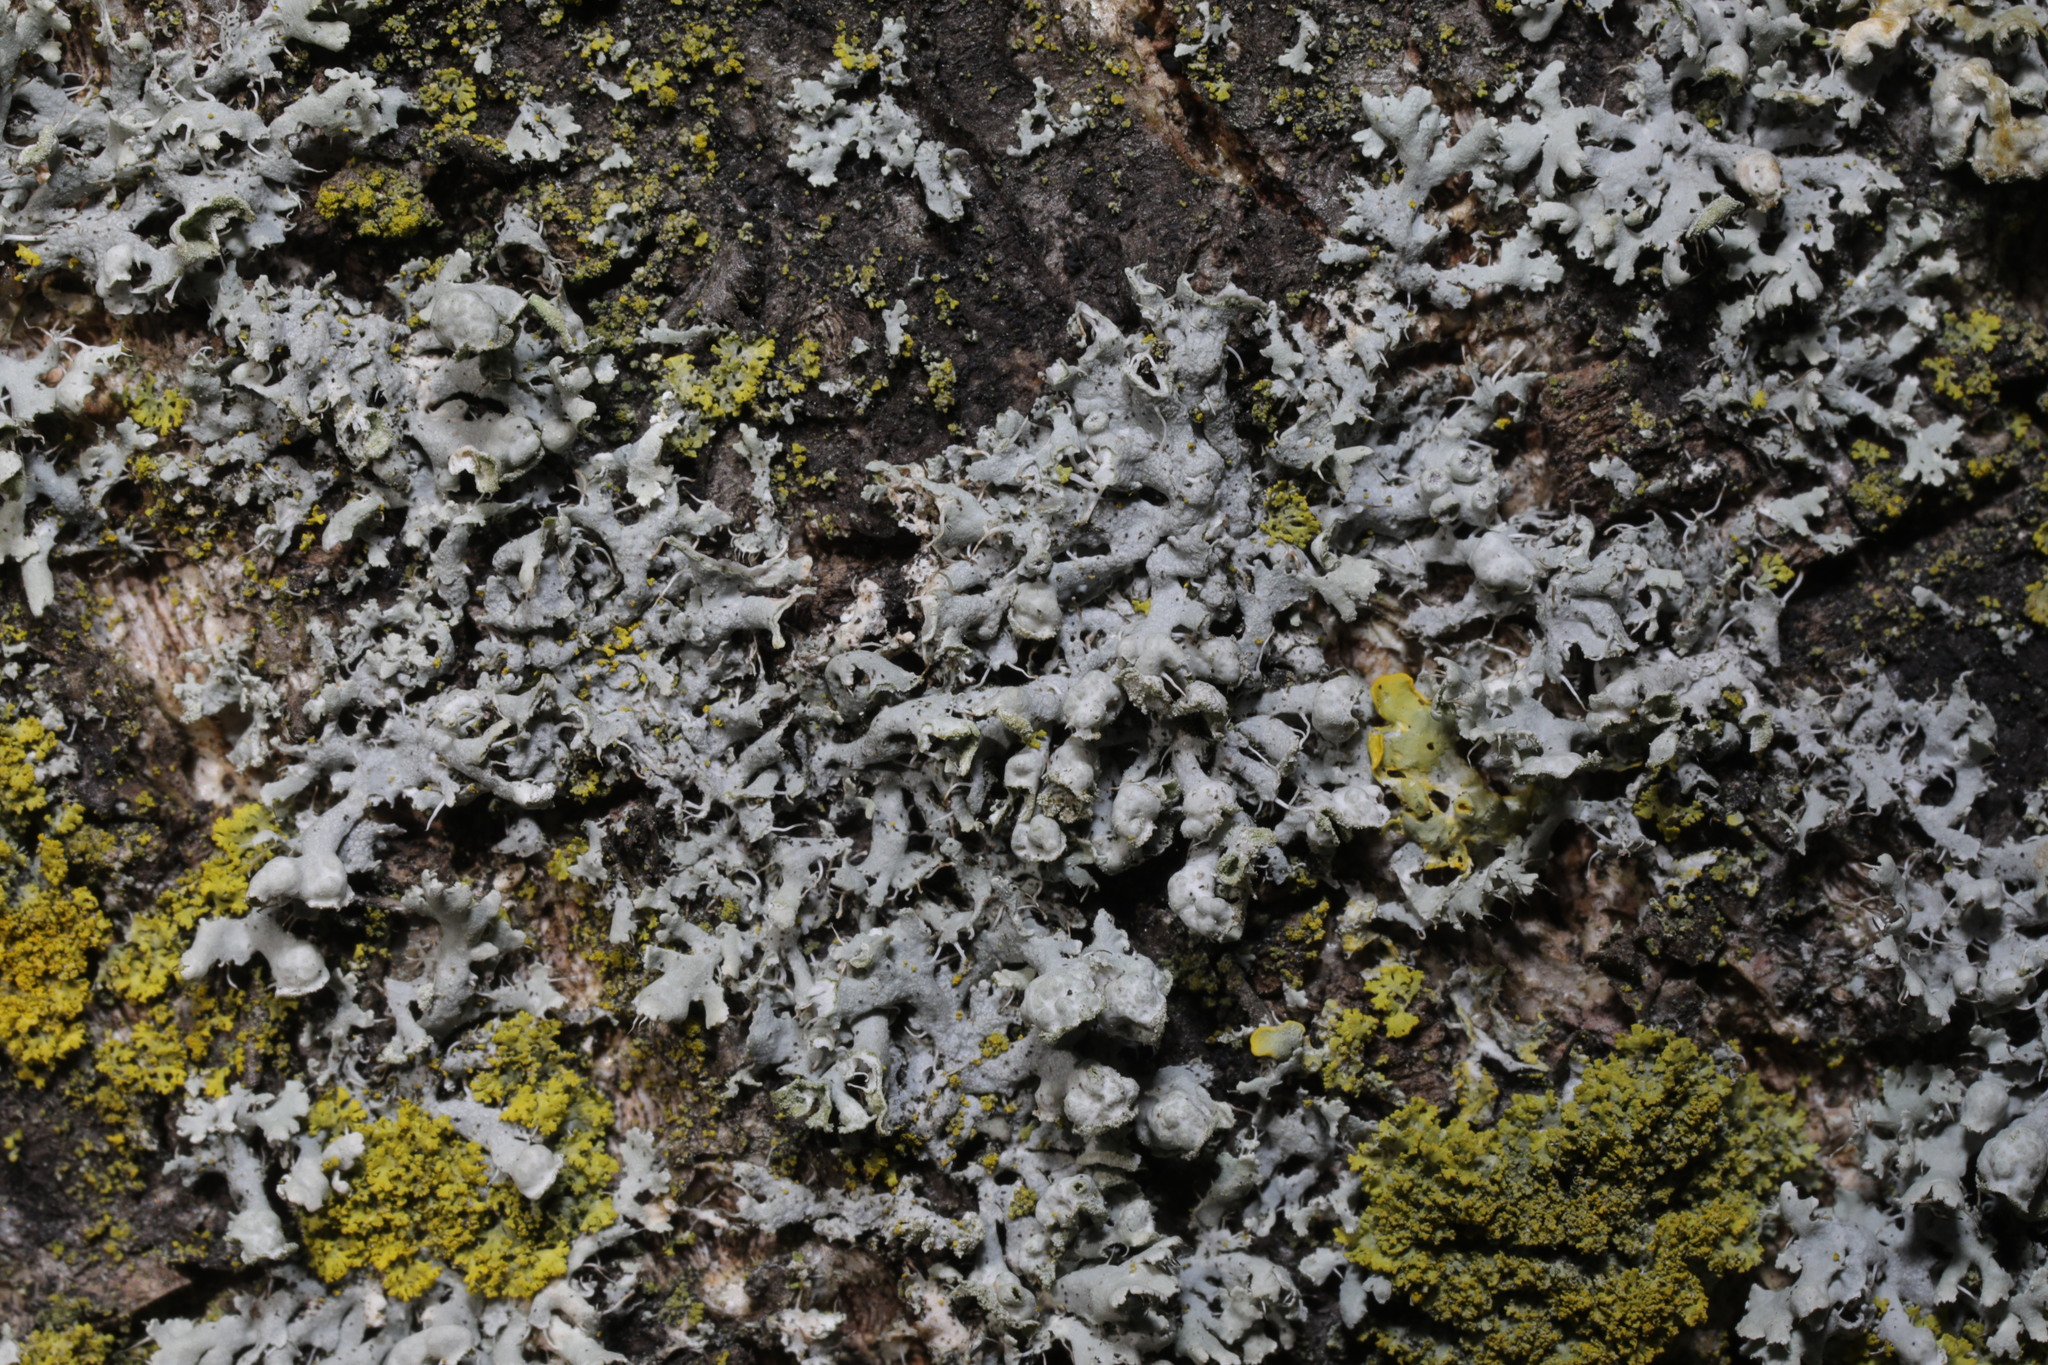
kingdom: Fungi
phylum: Ascomycota
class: Lecanoromycetes
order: Caliciales
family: Physciaceae
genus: Physcia
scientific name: Physcia adscendens
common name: Hooded rosette lichen
